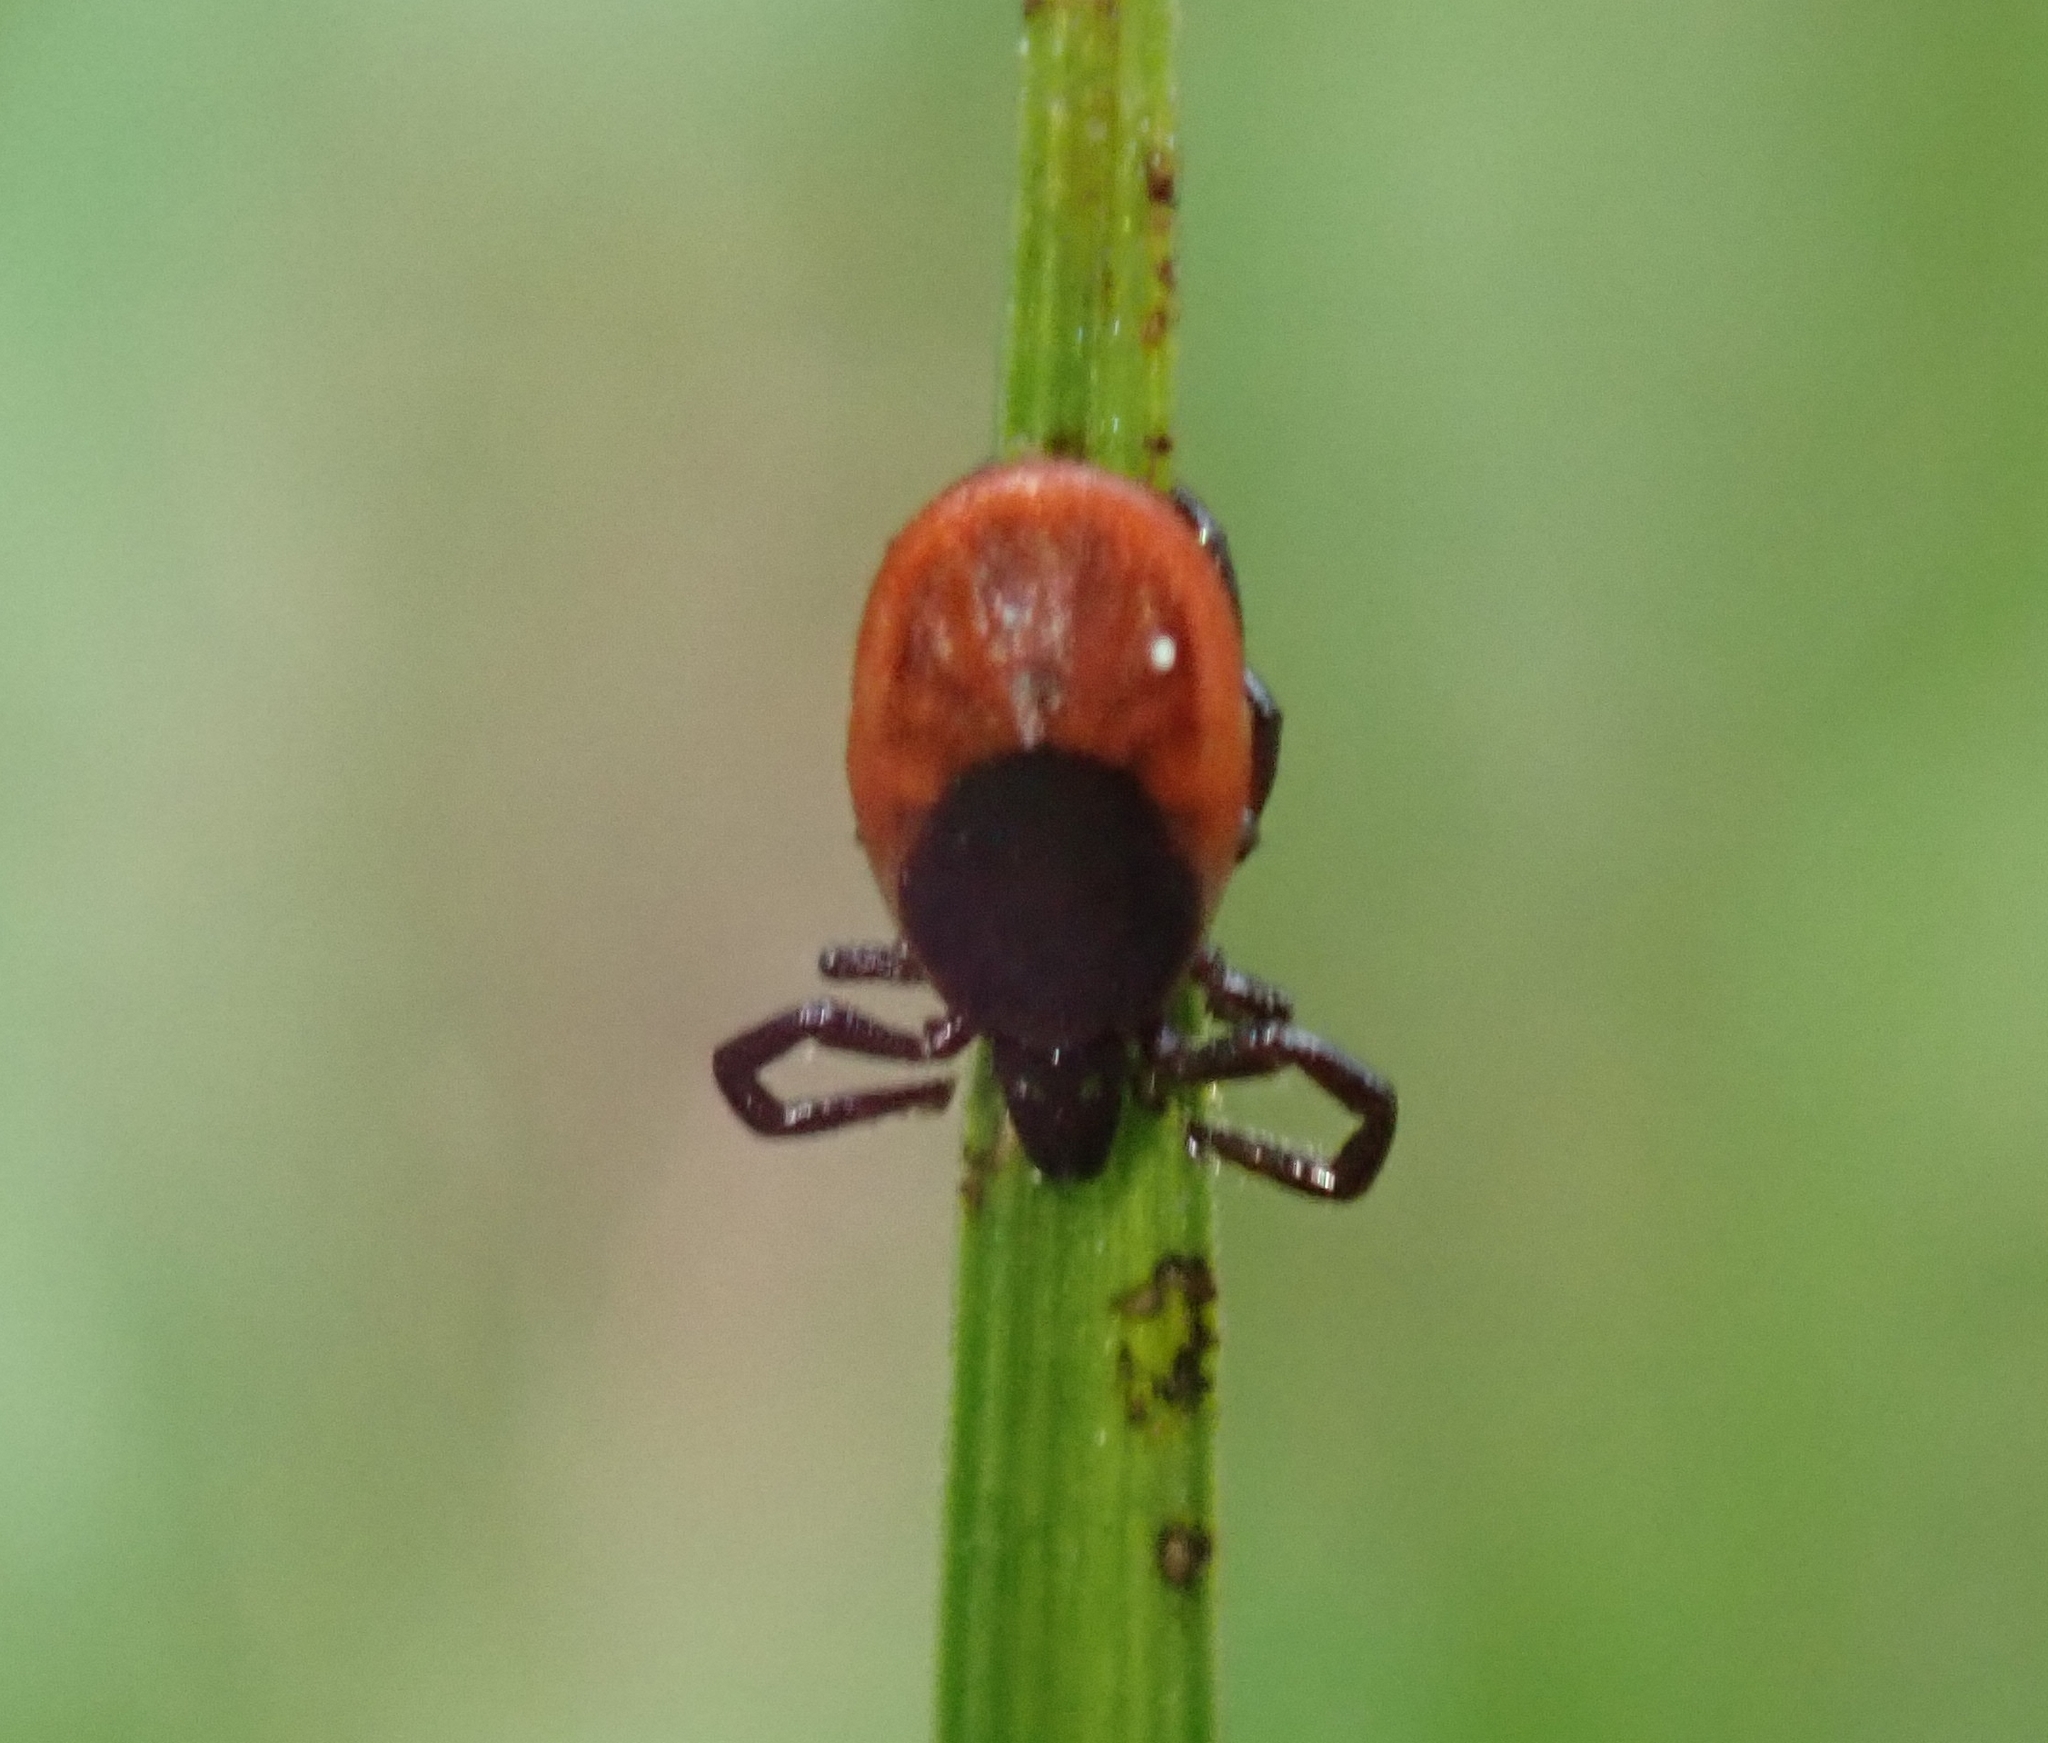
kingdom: Animalia
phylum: Arthropoda
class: Arachnida
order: Ixodida
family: Ixodidae
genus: Ixodes
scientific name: Ixodes ricinus
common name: Castor bean tick
